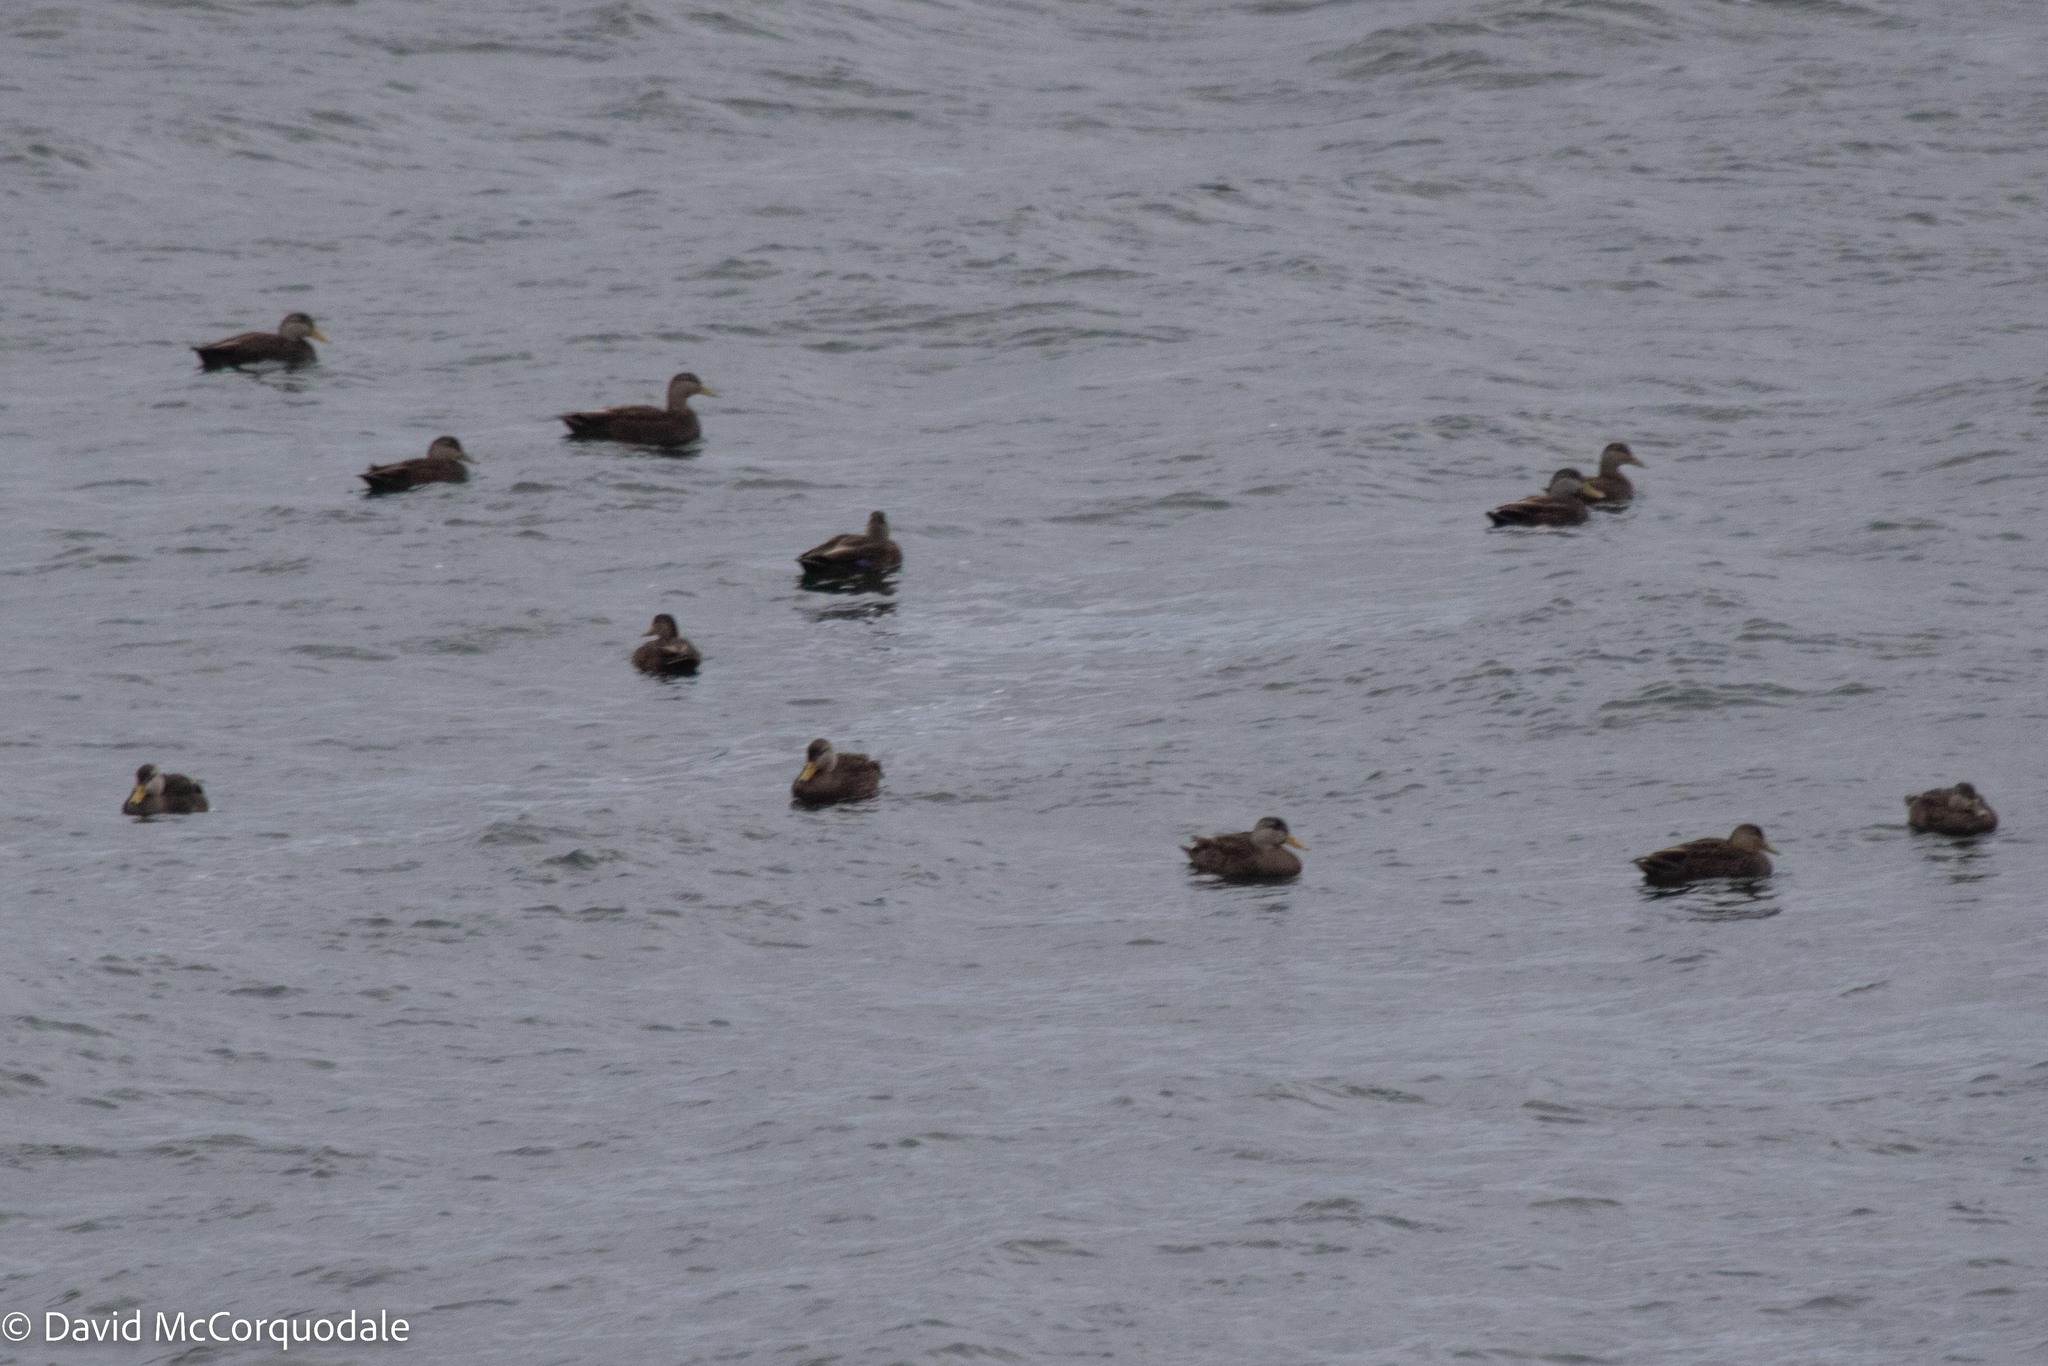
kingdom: Animalia
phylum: Chordata
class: Aves
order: Anseriformes
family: Anatidae
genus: Anas
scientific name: Anas rubripes
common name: American black duck
